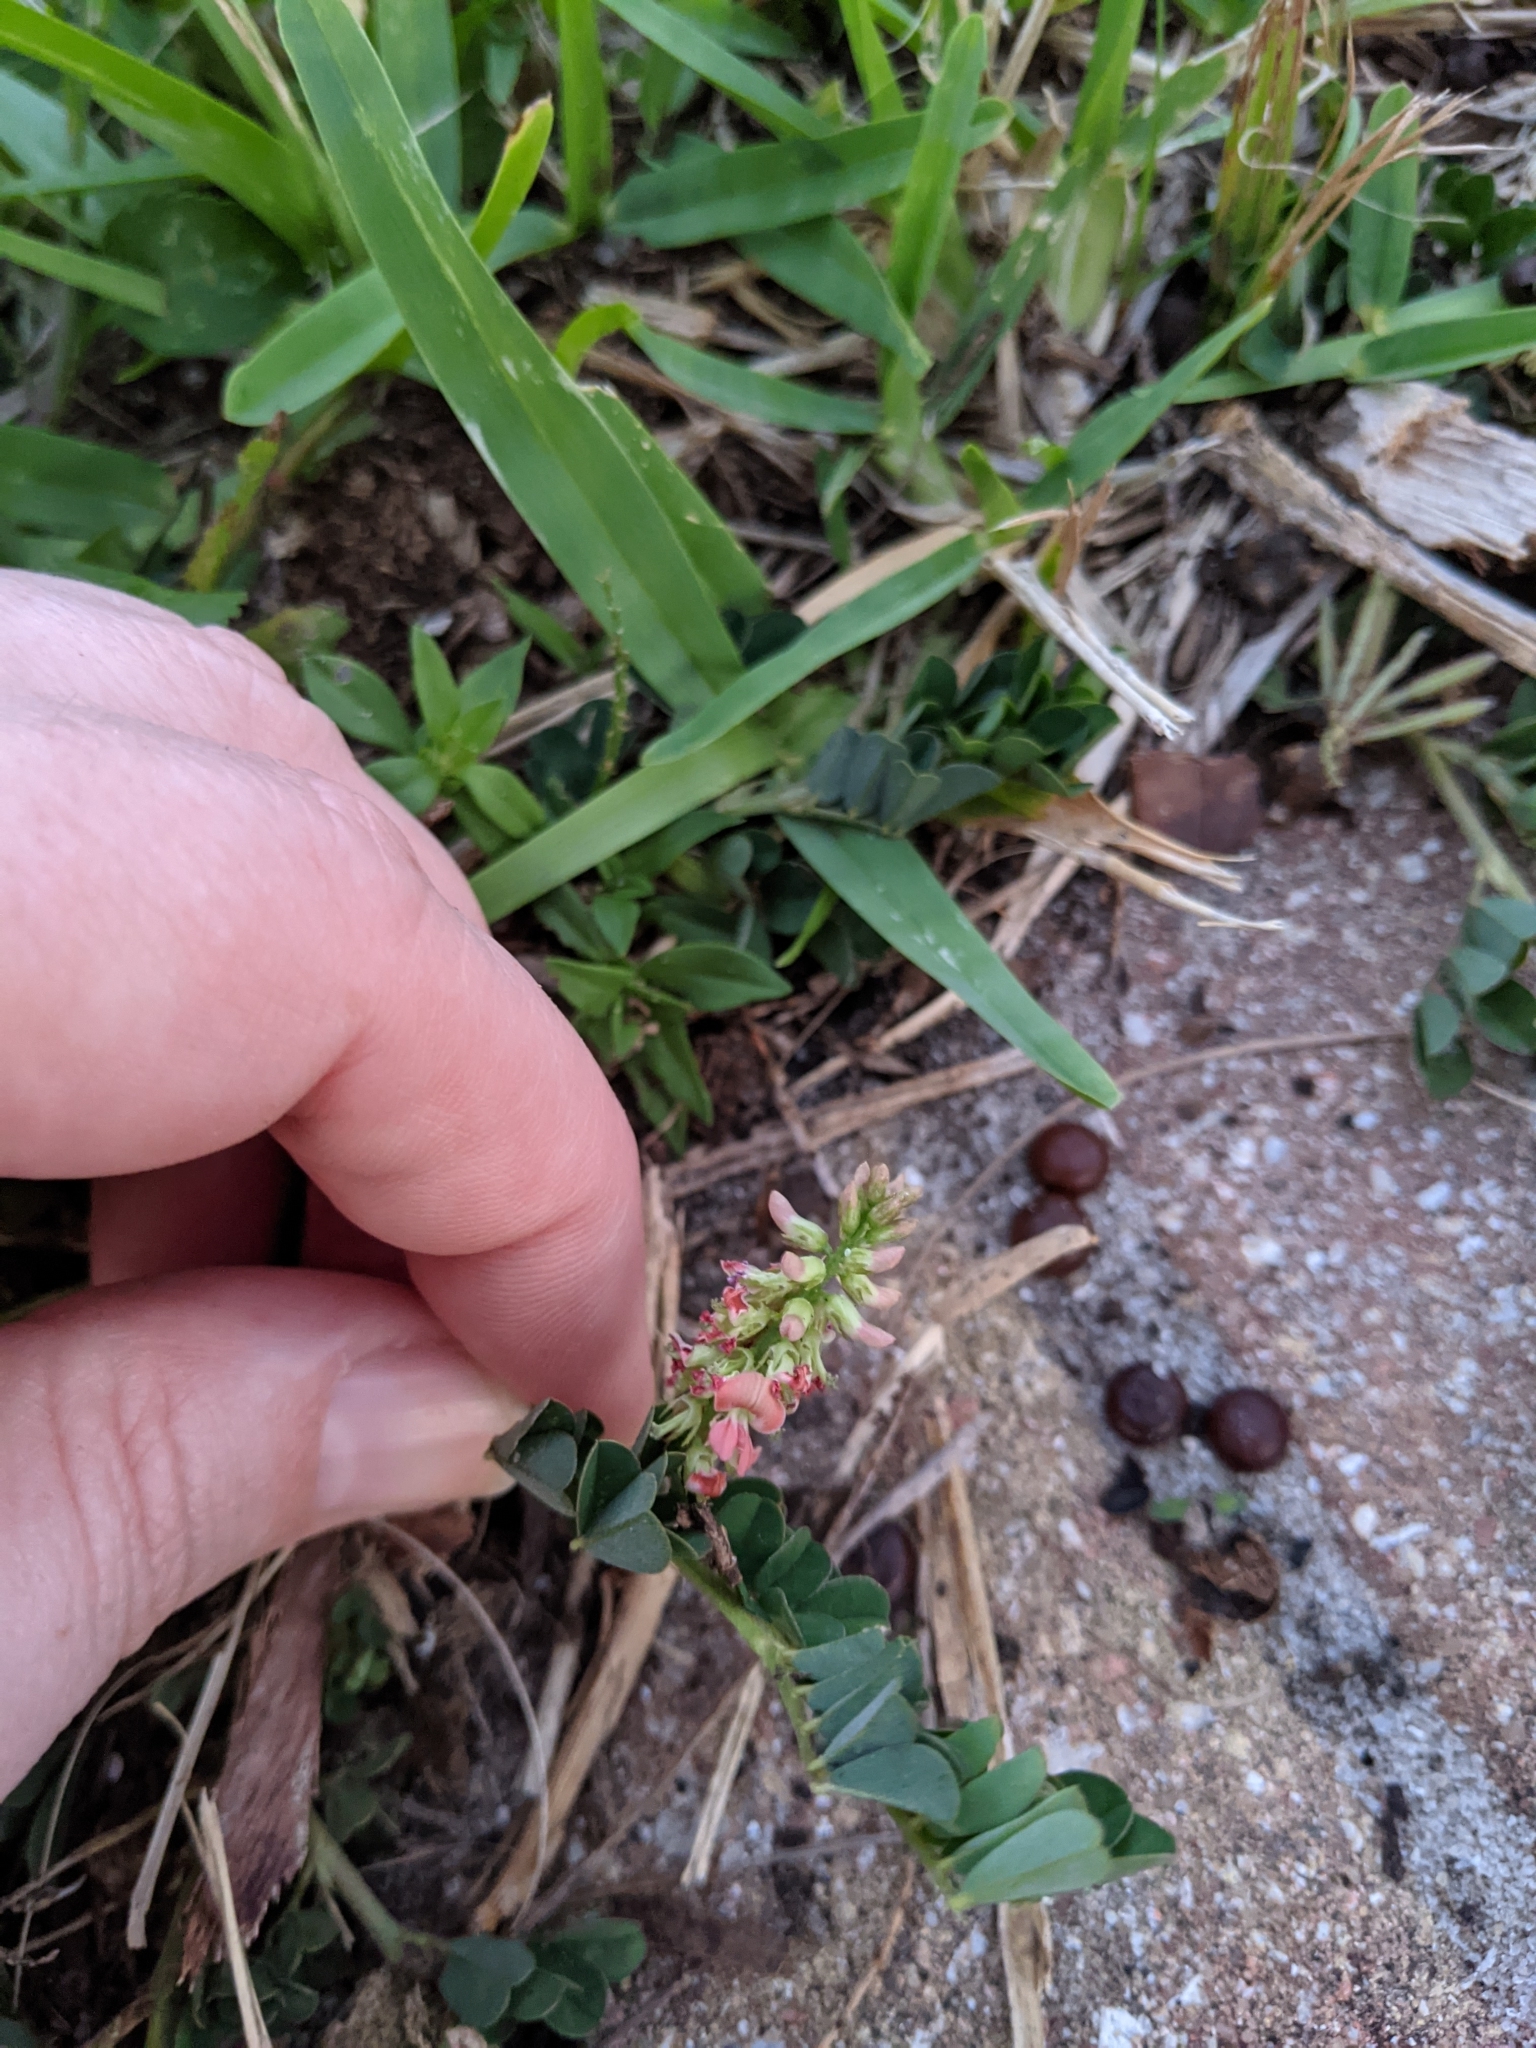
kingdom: Plantae
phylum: Tracheophyta
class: Magnoliopsida
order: Fabales
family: Fabaceae
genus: Indigofera
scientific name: Indigofera spicata
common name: Creeping indigo
